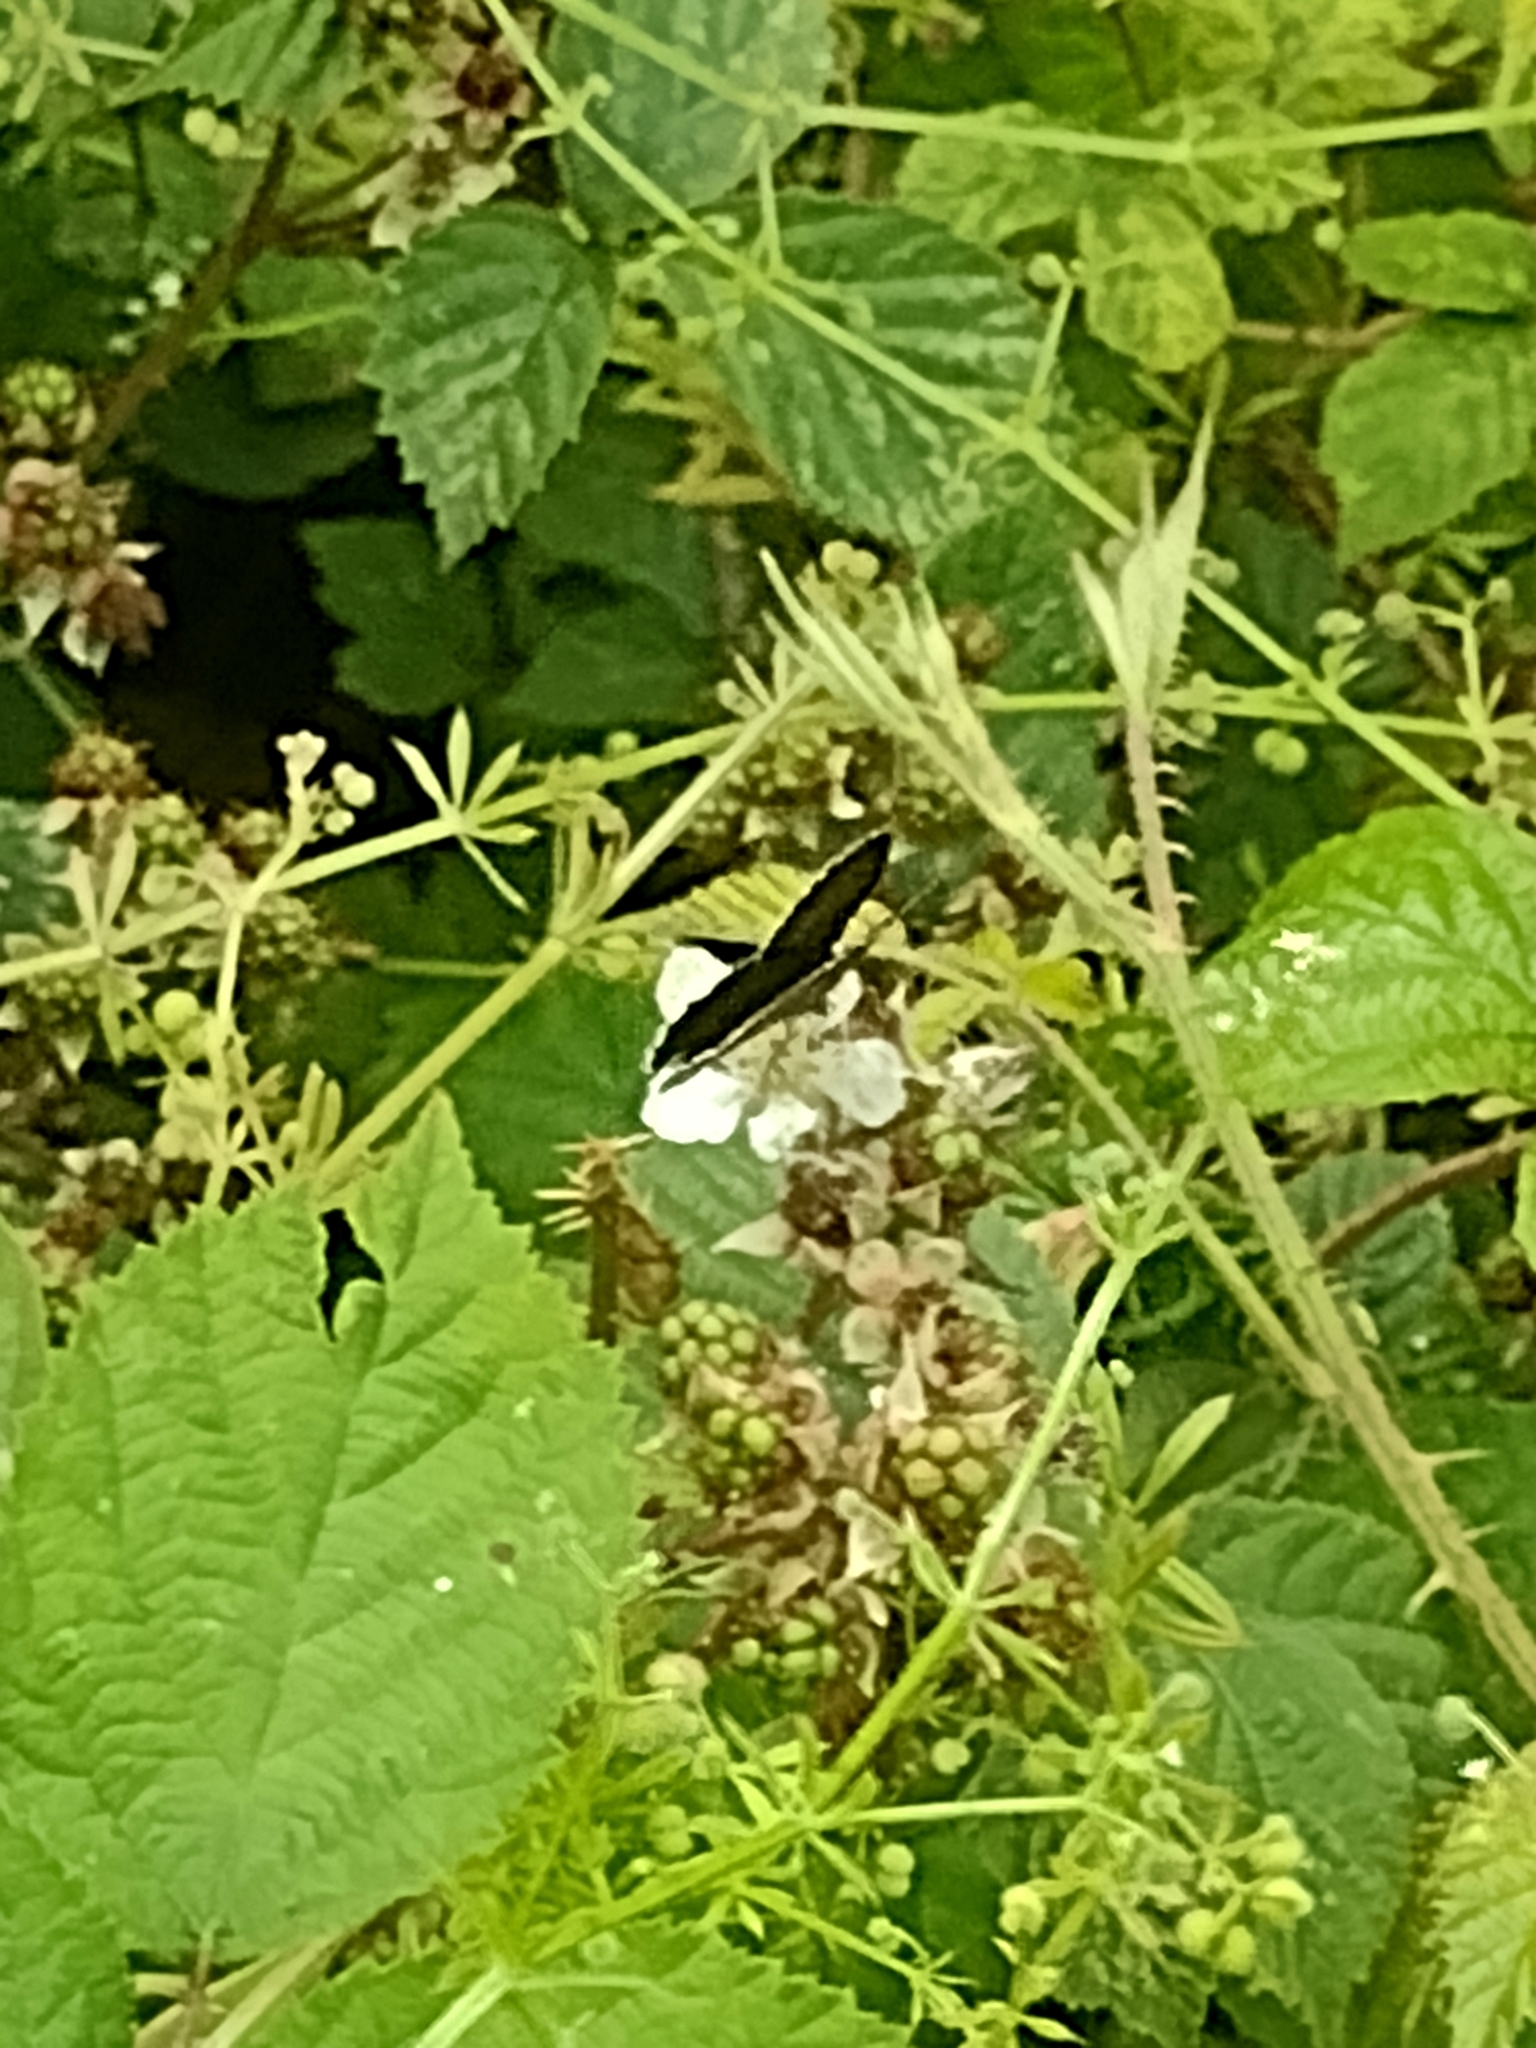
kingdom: Animalia
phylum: Arthropoda
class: Insecta
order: Lepidoptera
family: Nymphalidae
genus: Aphantopus
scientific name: Aphantopus hyperantus
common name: Ringlet
